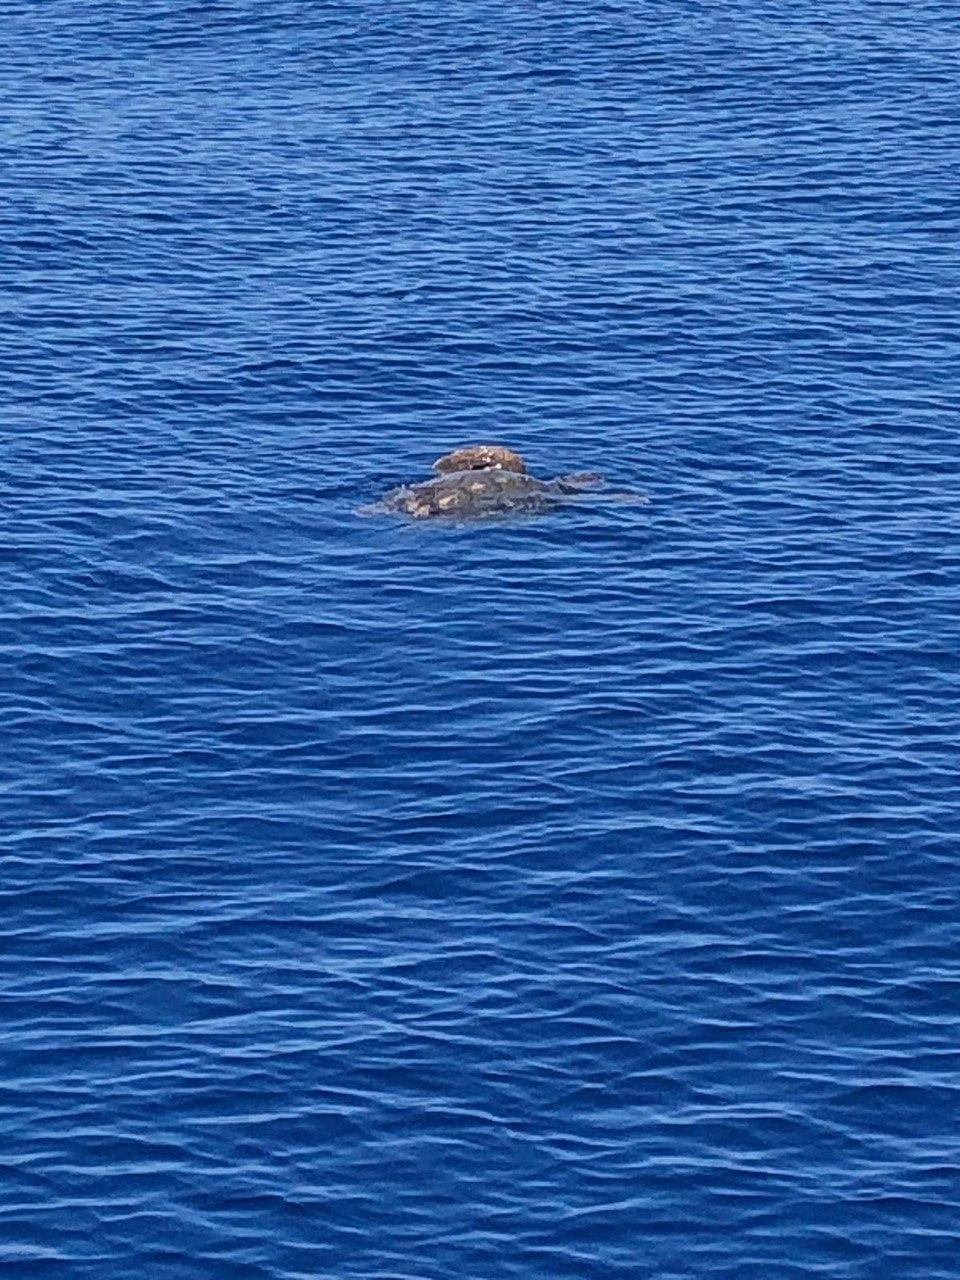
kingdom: Animalia
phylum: Chordata
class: Testudines
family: Cheloniidae
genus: Caretta
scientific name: Caretta caretta
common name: Loggerhead sea turtle
